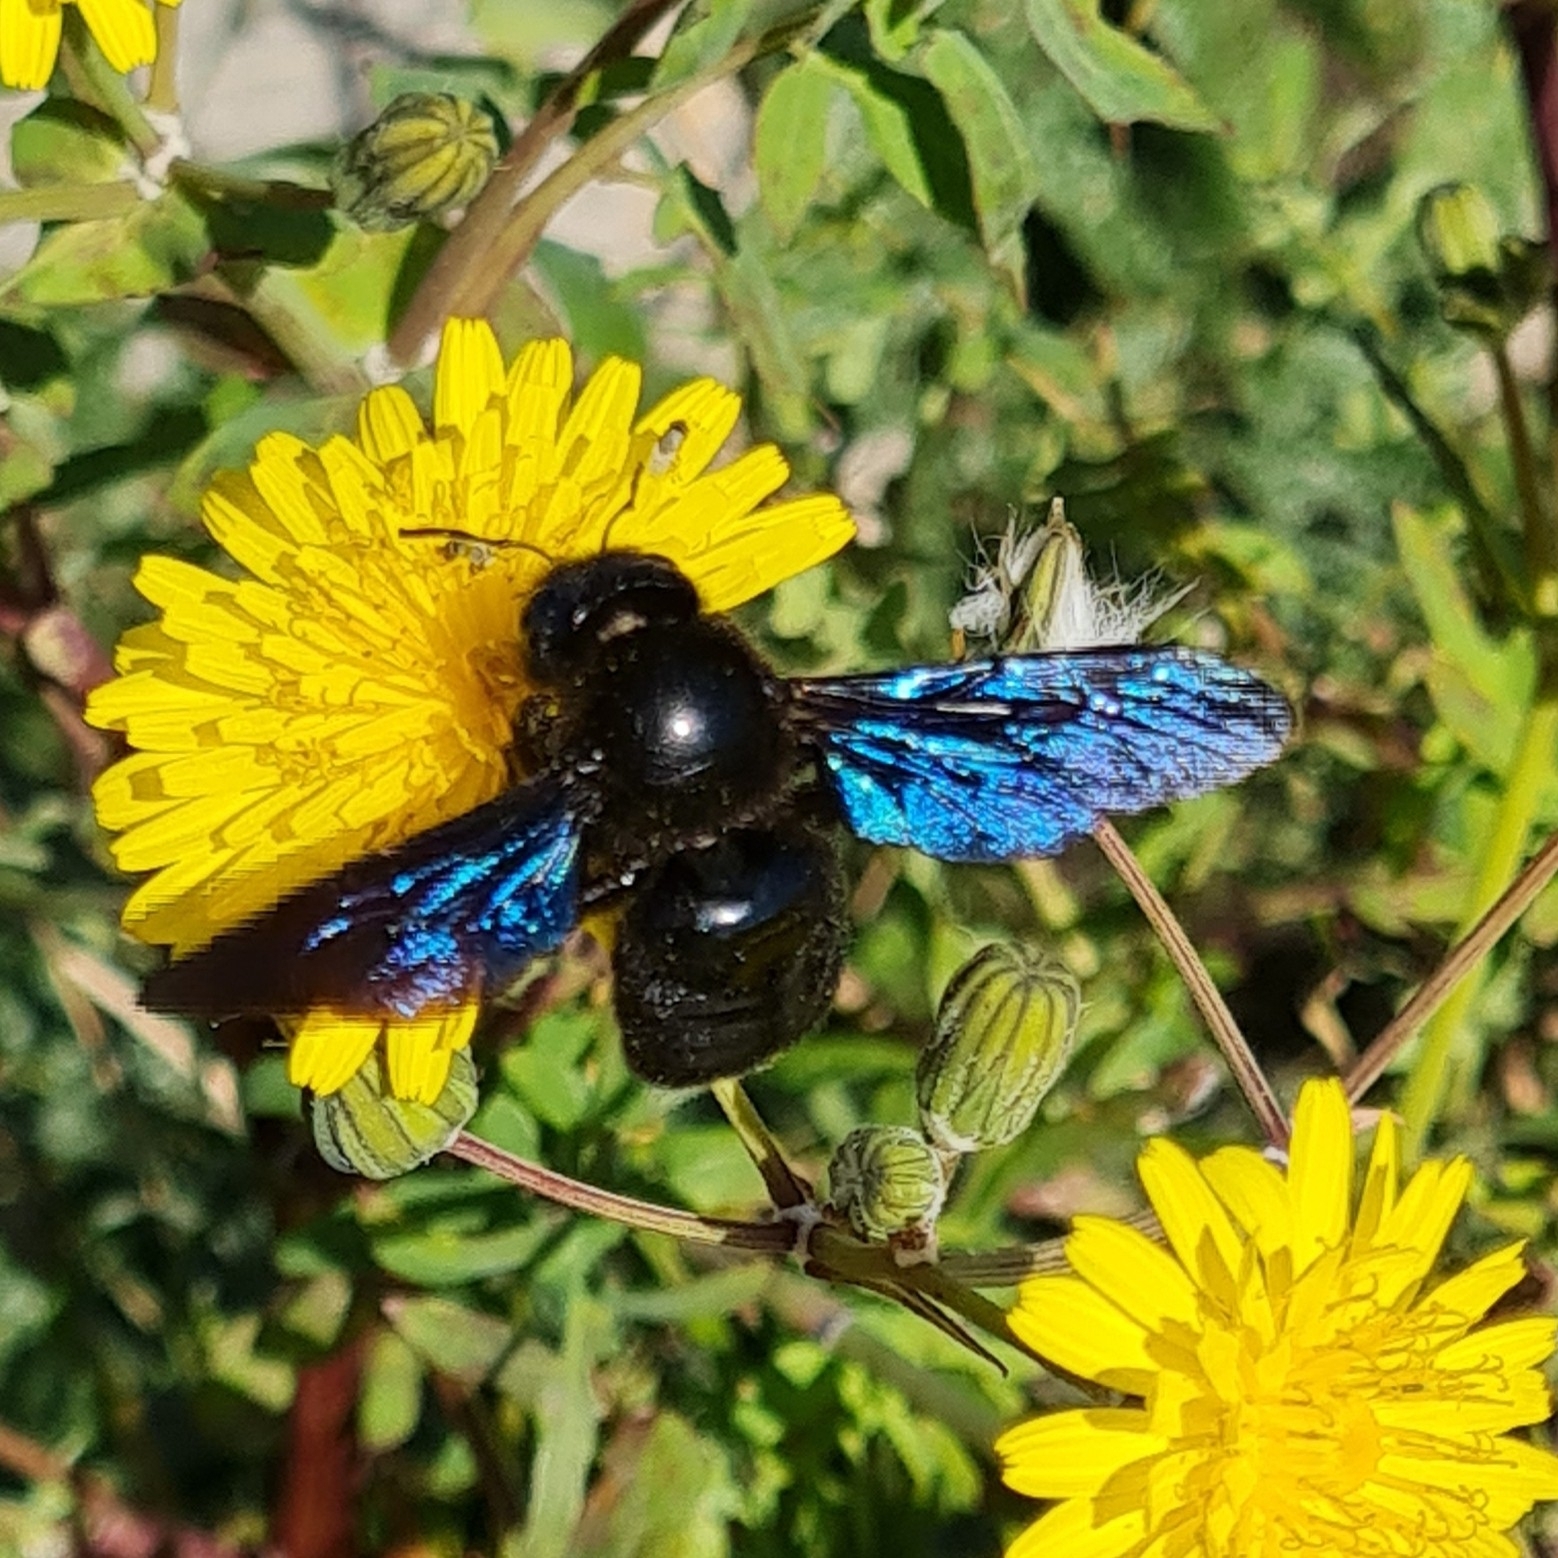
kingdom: Animalia
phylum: Arthropoda
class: Insecta
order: Hymenoptera
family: Apidae
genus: Xylocopa
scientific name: Xylocopa violacea
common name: Violet carpenter bee
